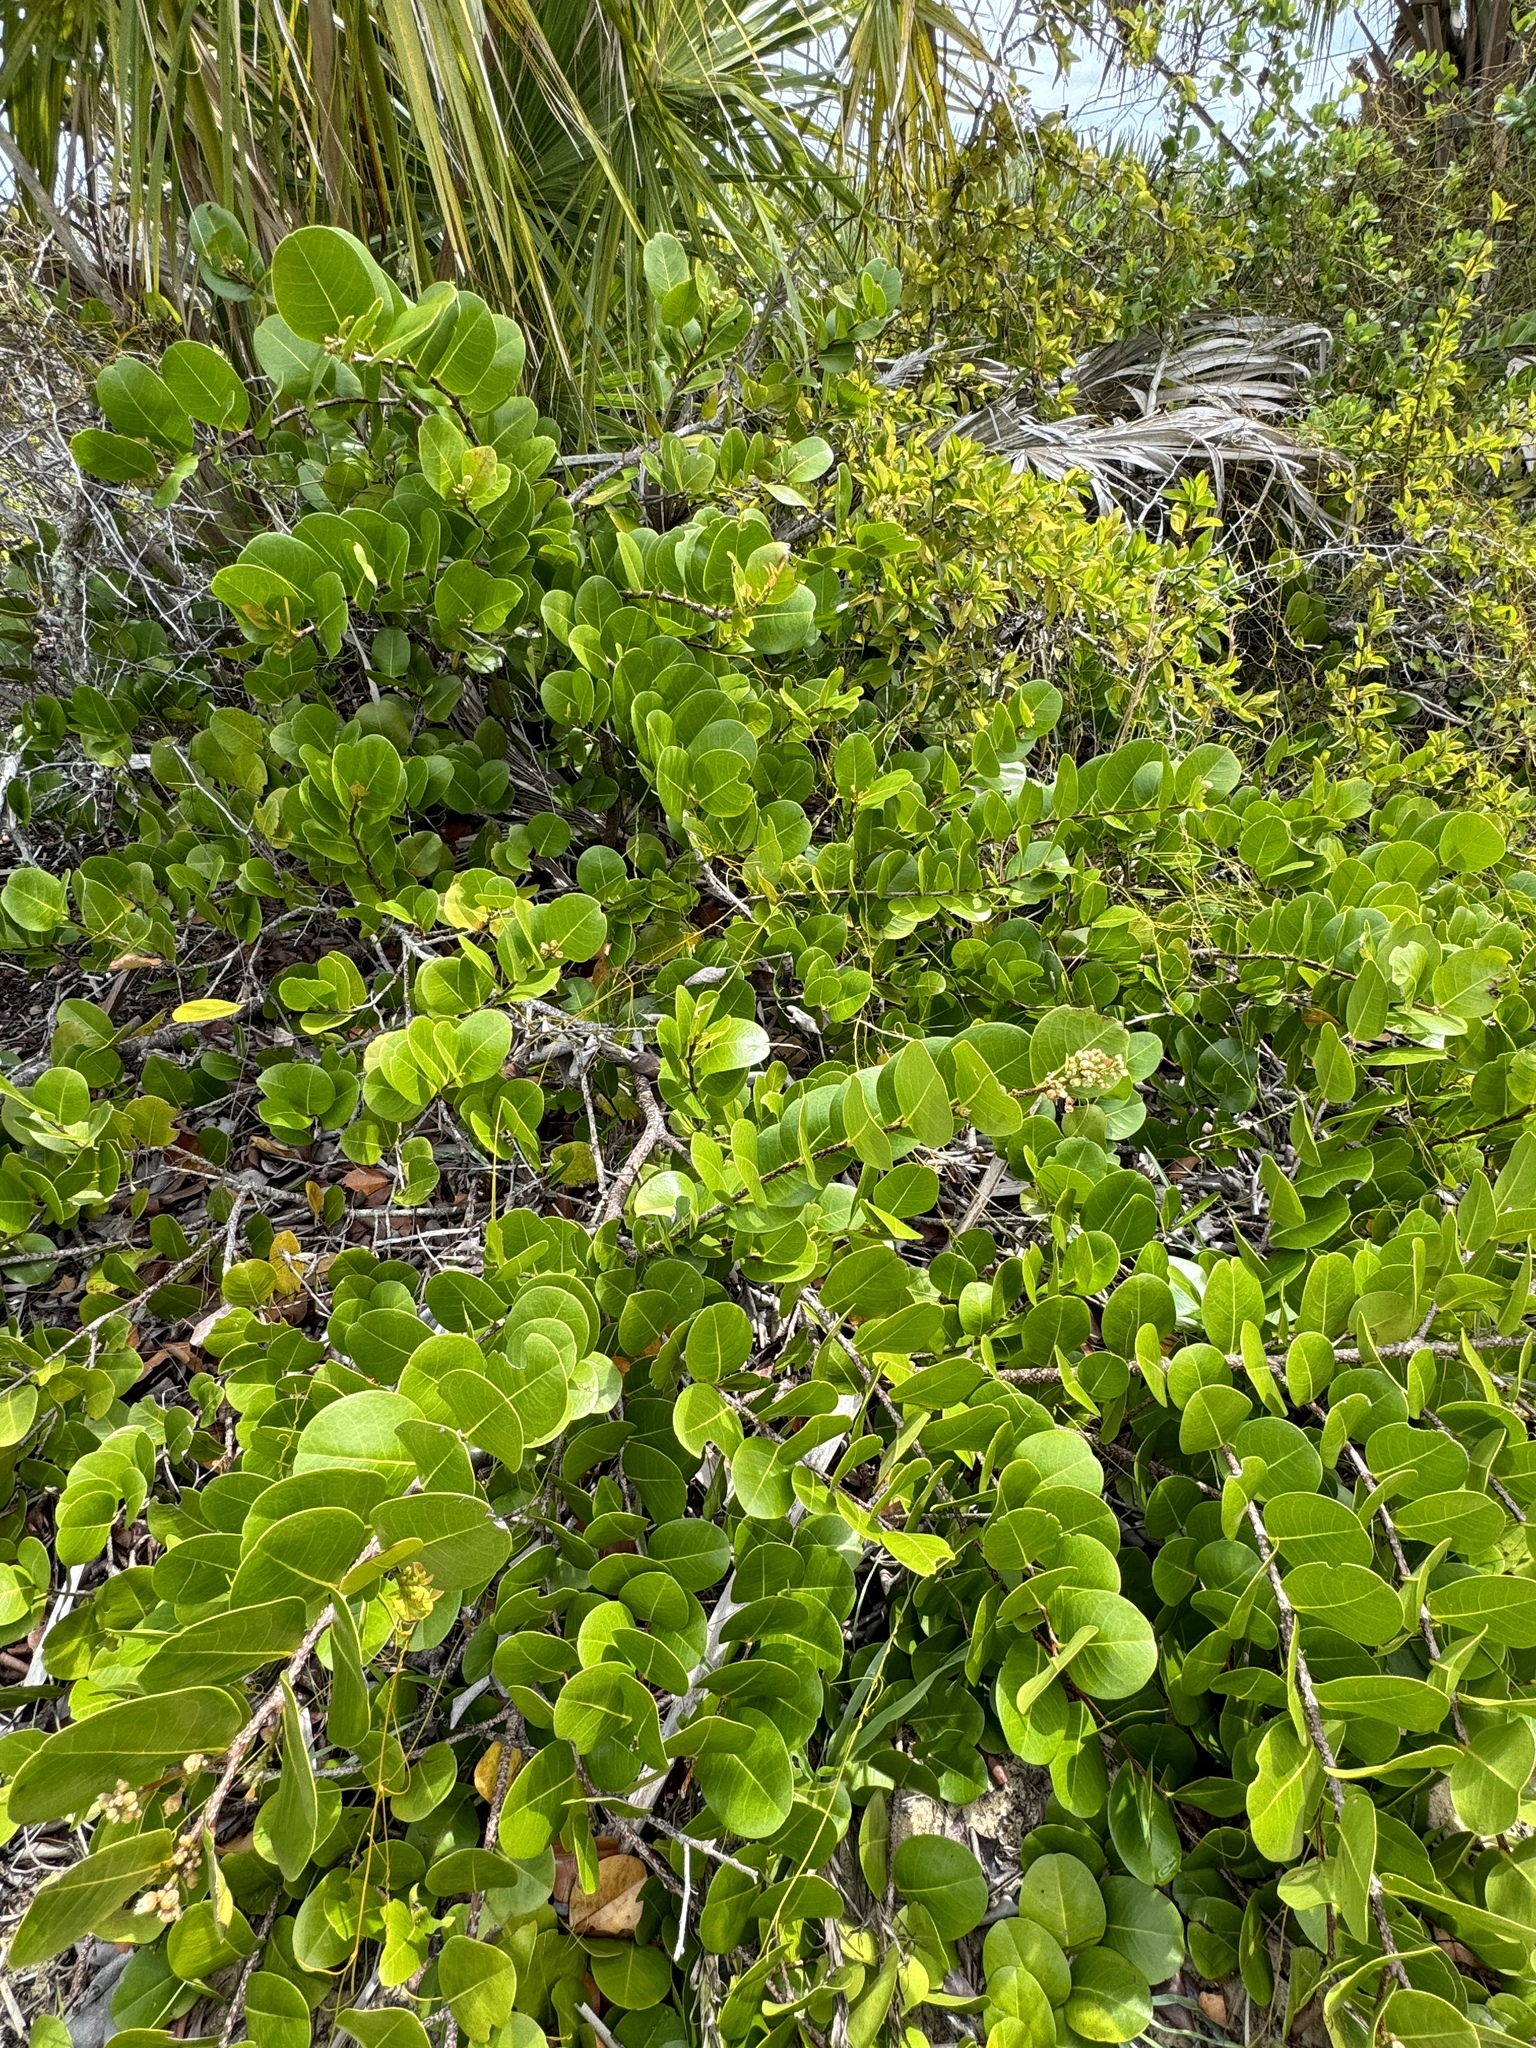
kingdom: Plantae
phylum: Tracheophyta
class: Magnoliopsida
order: Malpighiales
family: Chrysobalanaceae
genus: Chrysobalanus
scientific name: Chrysobalanus icaco
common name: Coco plum
